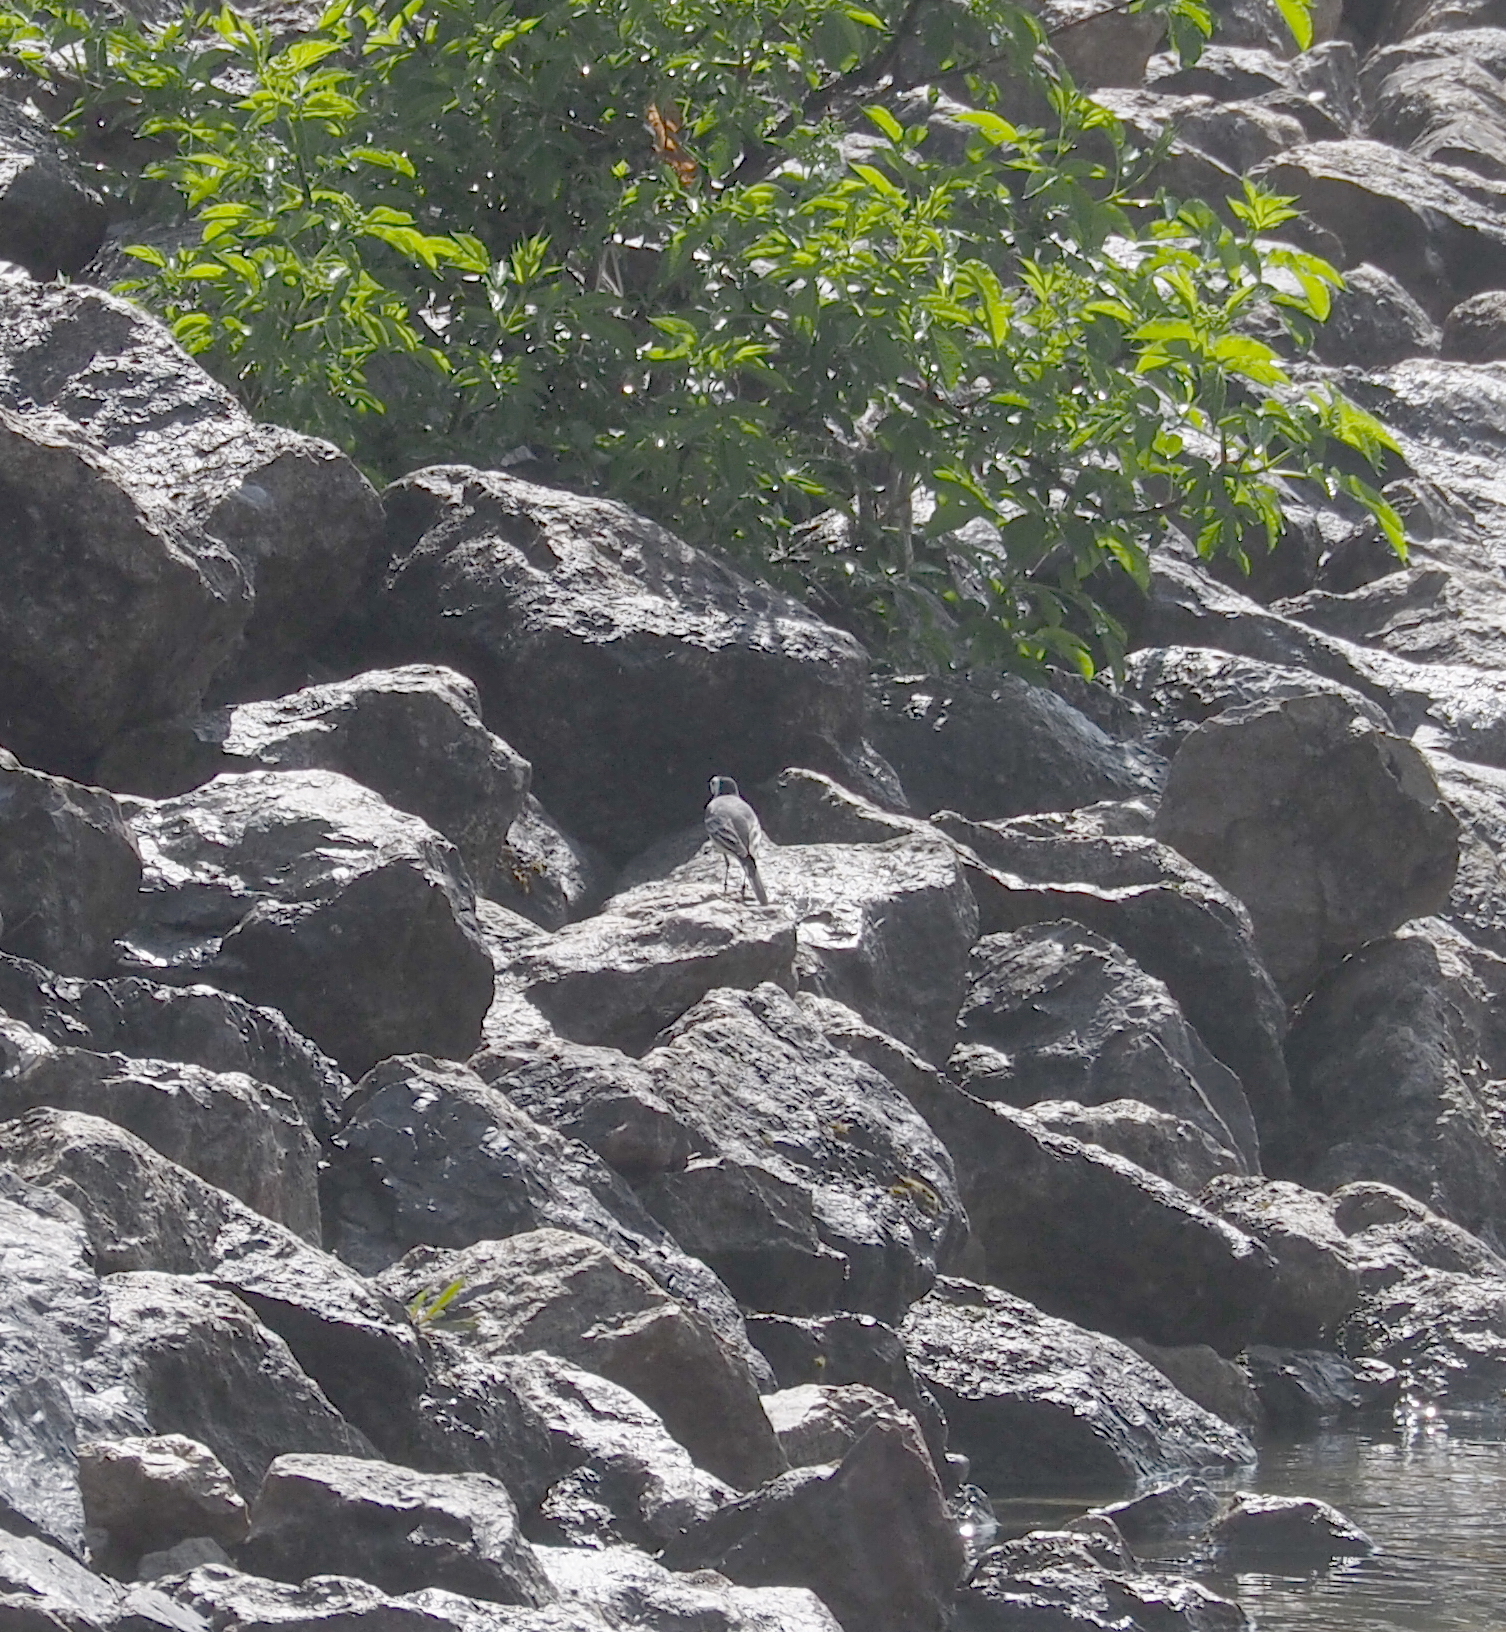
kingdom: Animalia
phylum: Chordata
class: Aves
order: Passeriformes
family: Motacillidae
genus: Motacilla
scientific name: Motacilla alba
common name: White wagtail
